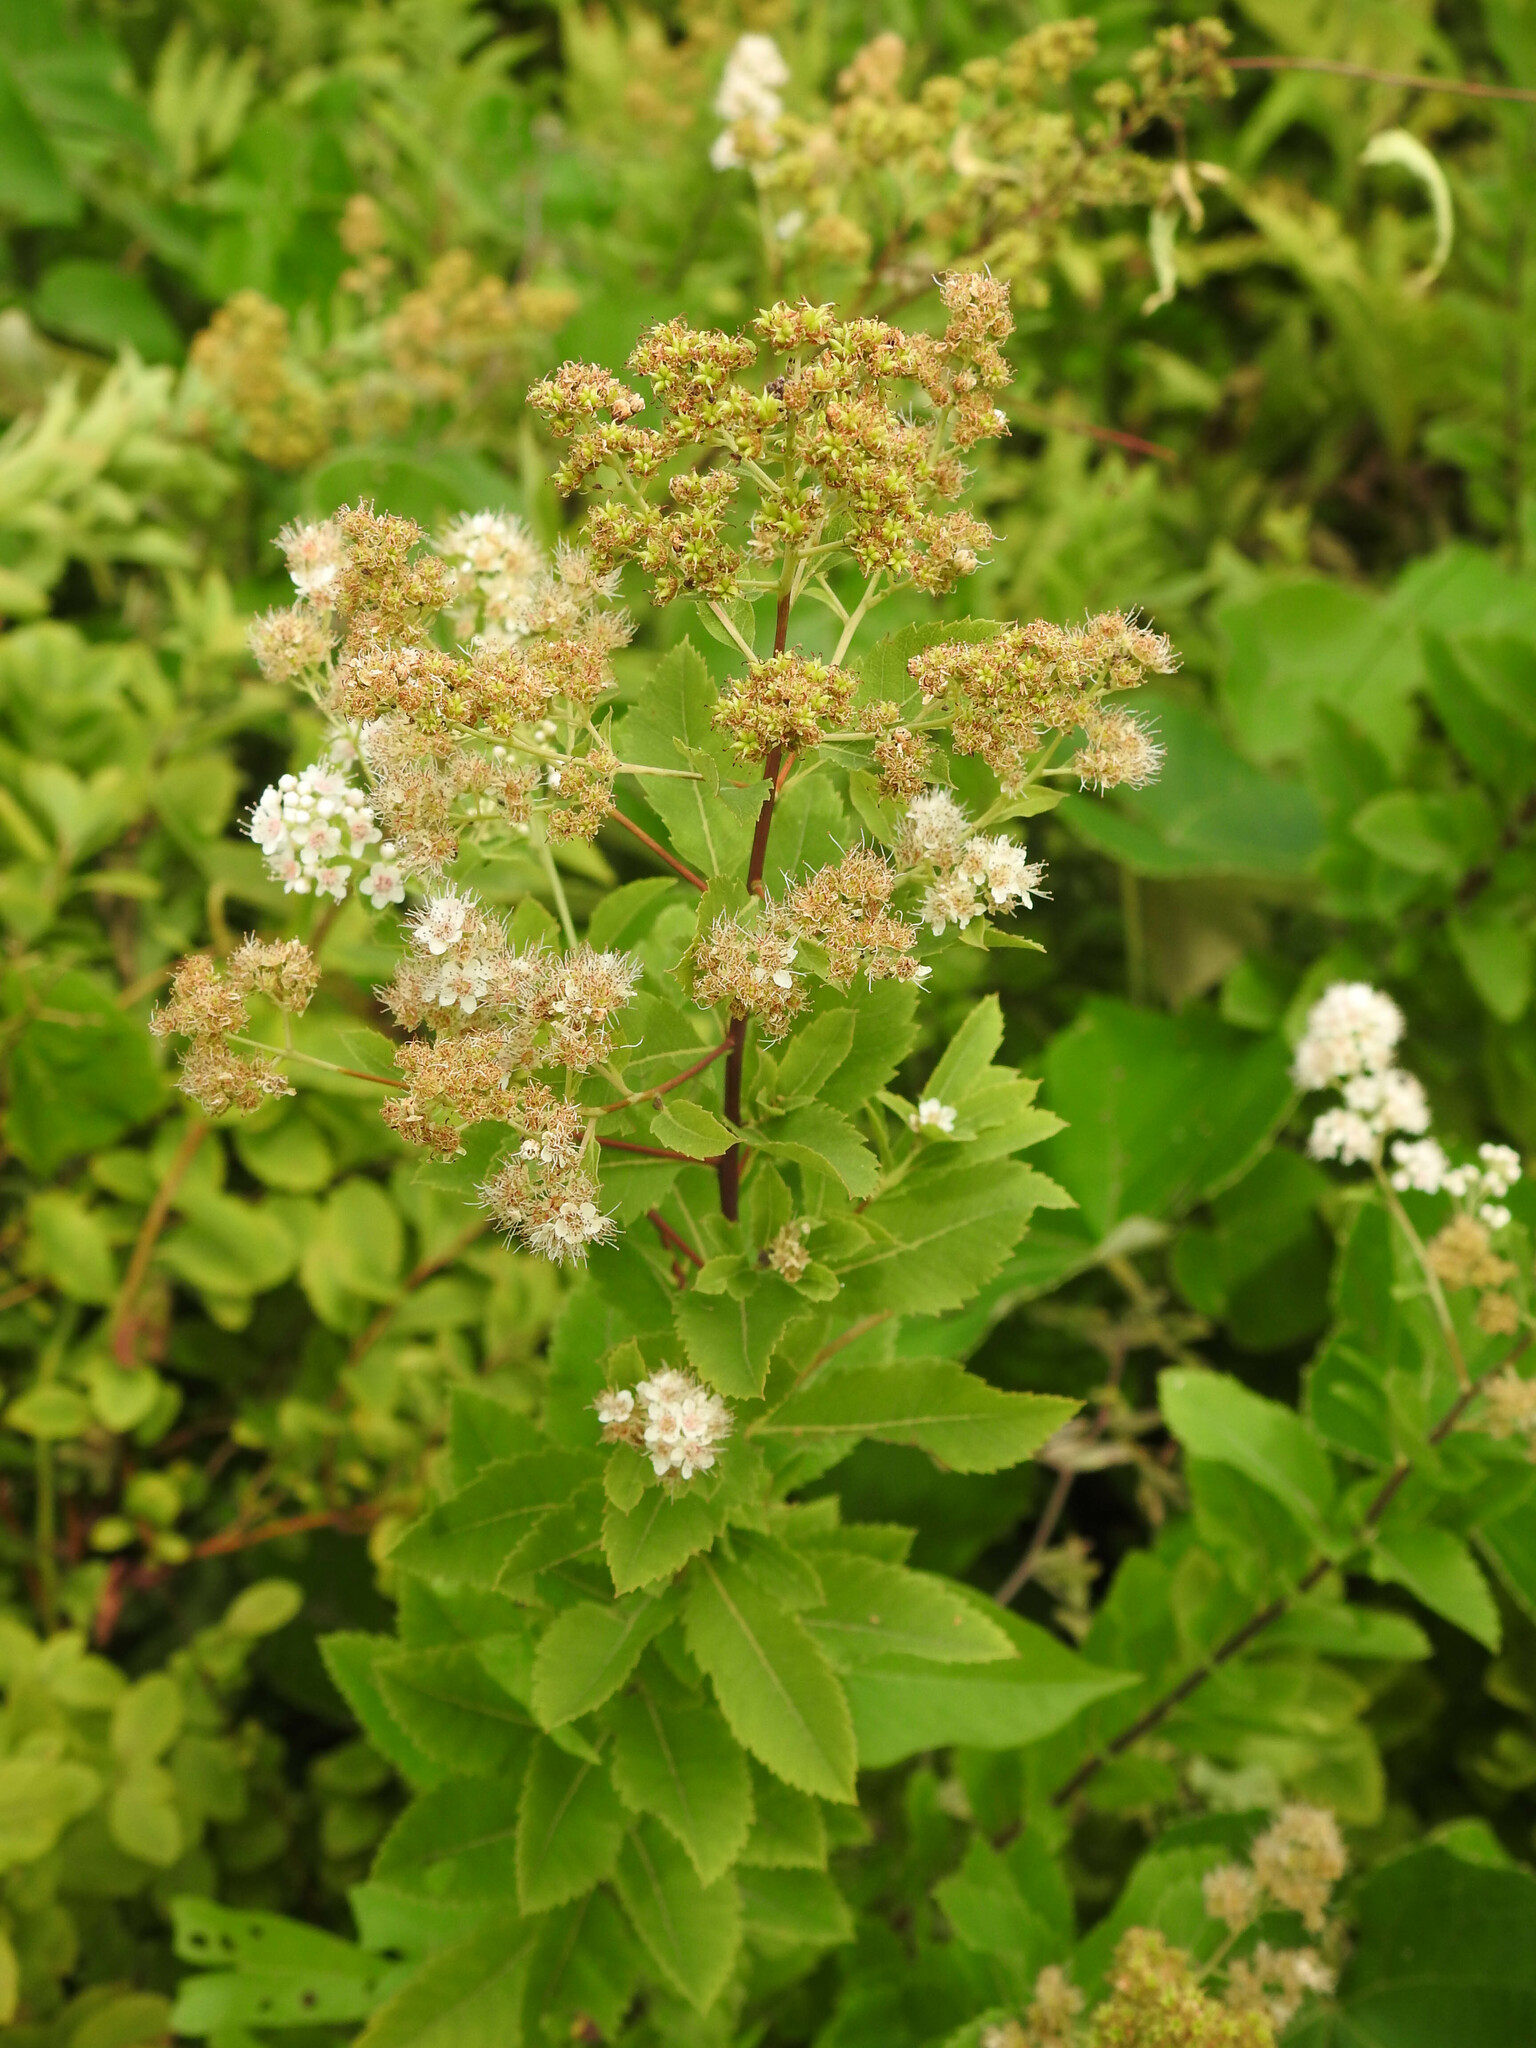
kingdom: Plantae
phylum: Tracheophyta
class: Magnoliopsida
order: Rosales
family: Rosaceae
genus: Spiraea
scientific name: Spiraea alba
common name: Pale bridewort
